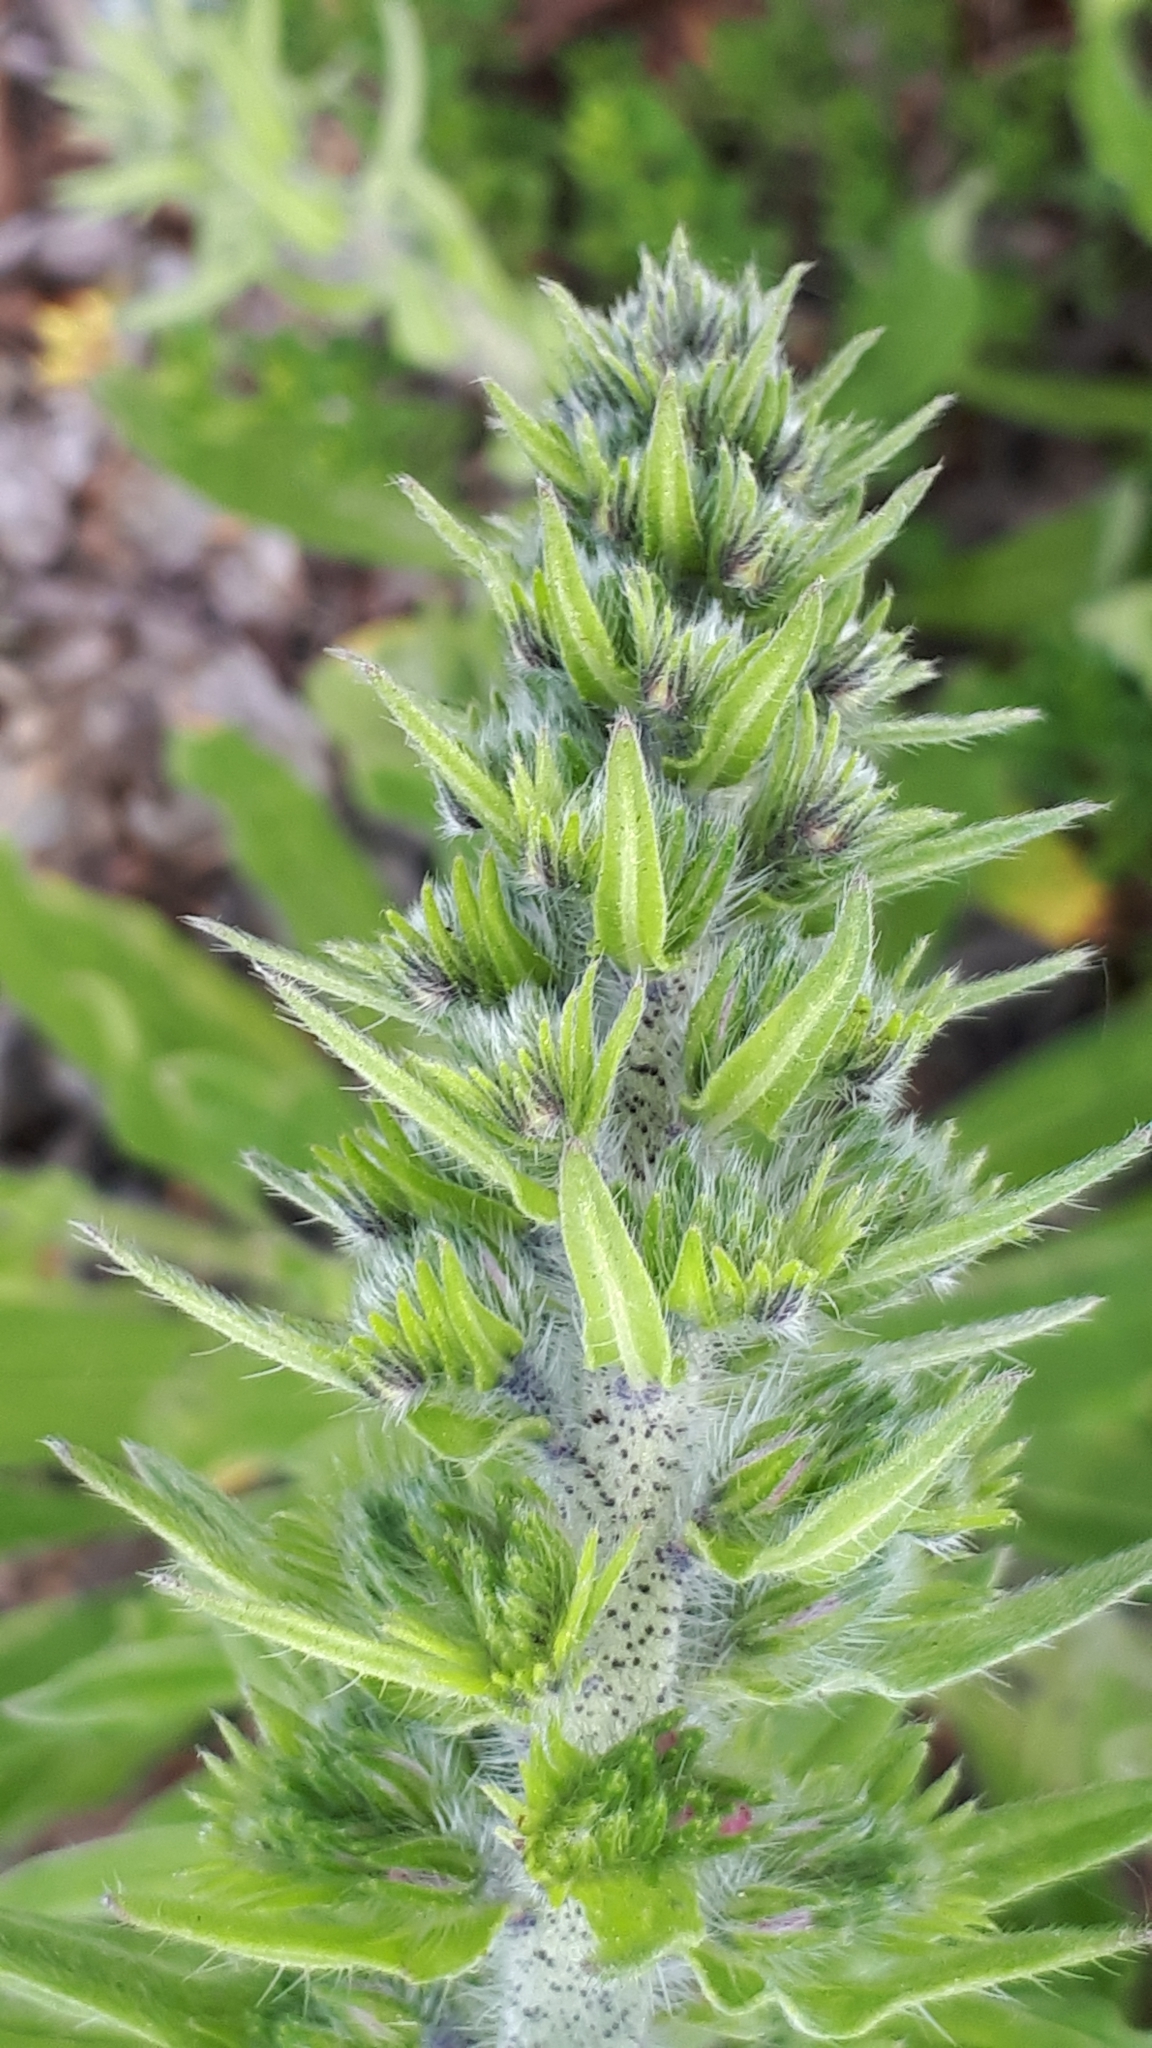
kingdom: Plantae
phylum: Tracheophyta
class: Magnoliopsida
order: Boraginales
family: Boraginaceae
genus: Echium
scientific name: Echium vulgare
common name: Common viper's bugloss
